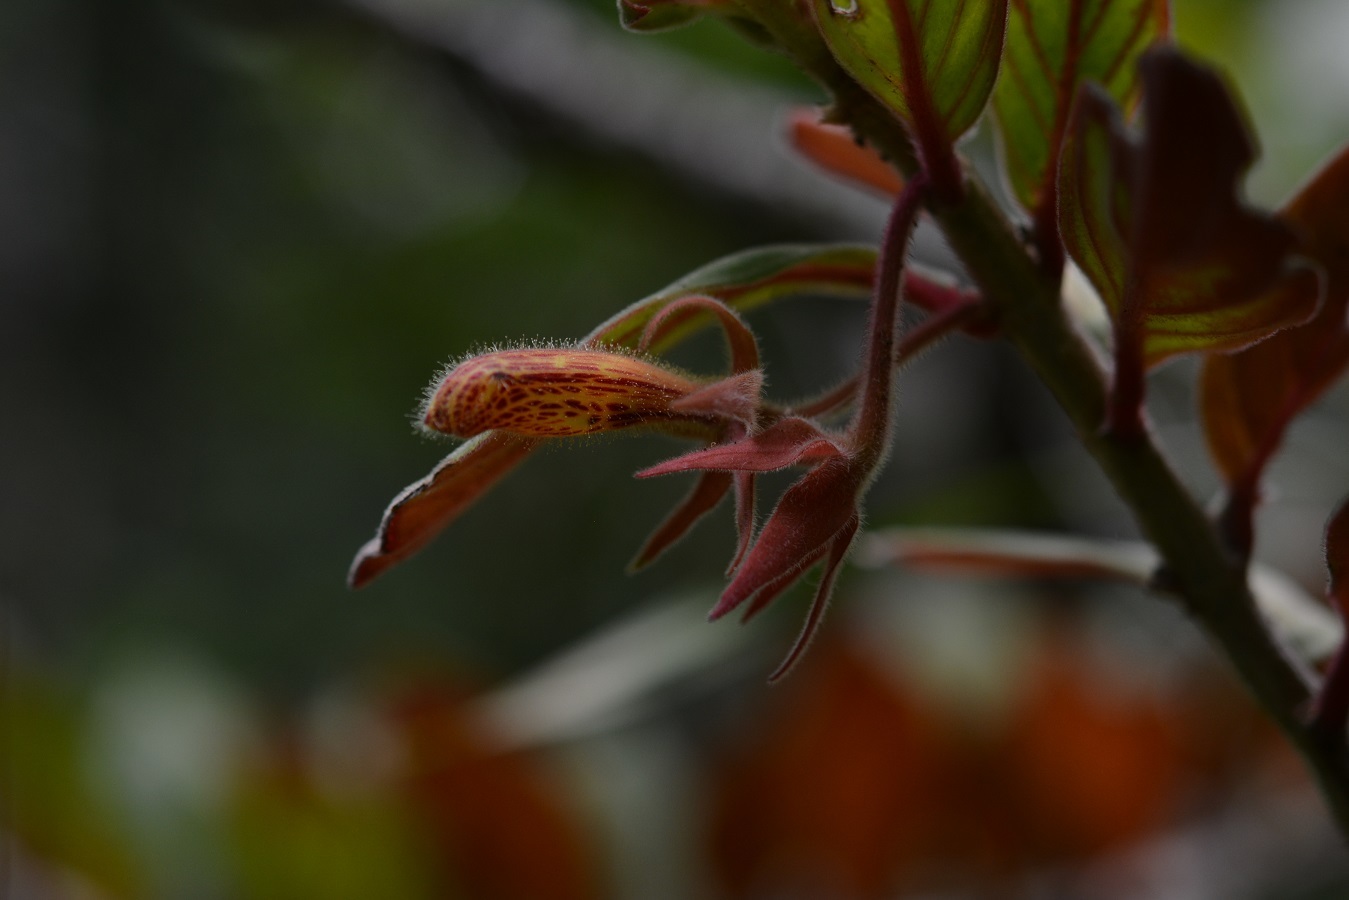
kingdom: Plantae
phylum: Tracheophyta
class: Magnoliopsida
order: Lamiales
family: Gesneriaceae
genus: Columnea
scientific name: Columnea schiedeana
